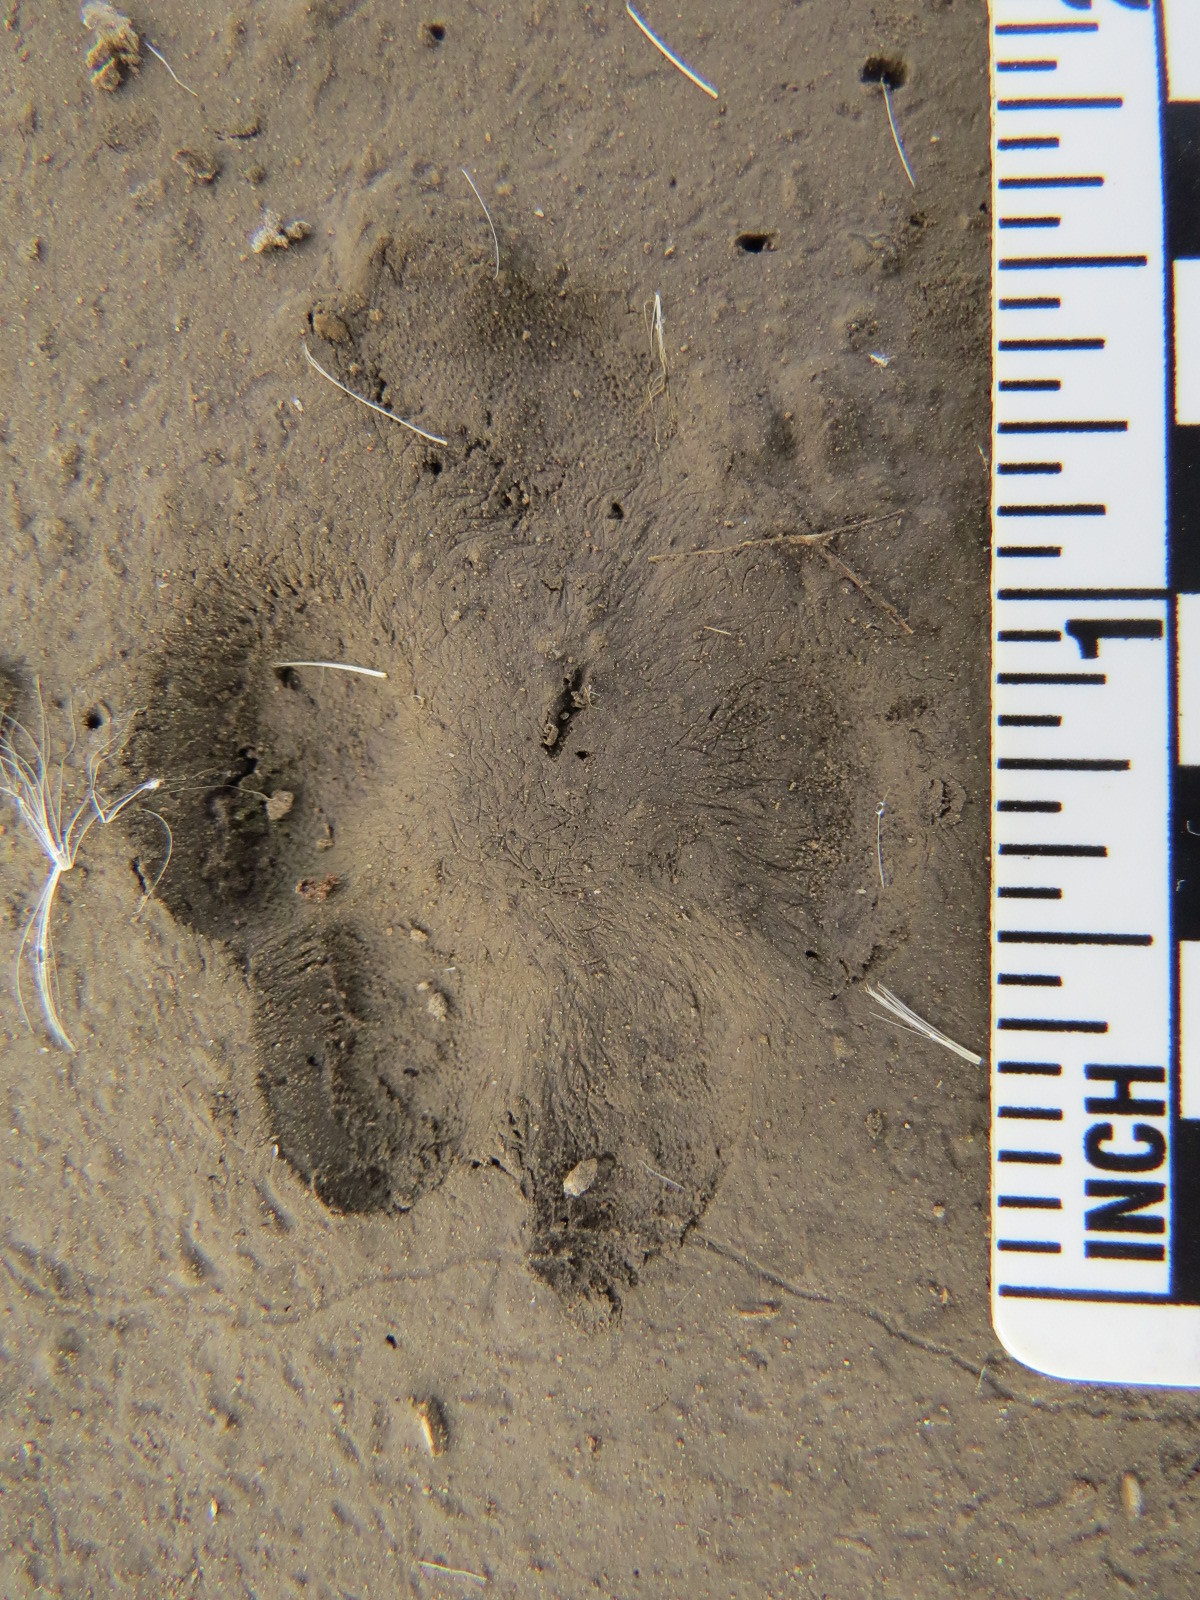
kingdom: Animalia
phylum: Chordata
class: Mammalia
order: Carnivora
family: Canidae
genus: Urocyon
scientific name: Urocyon cinereoargenteus
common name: Gray fox
